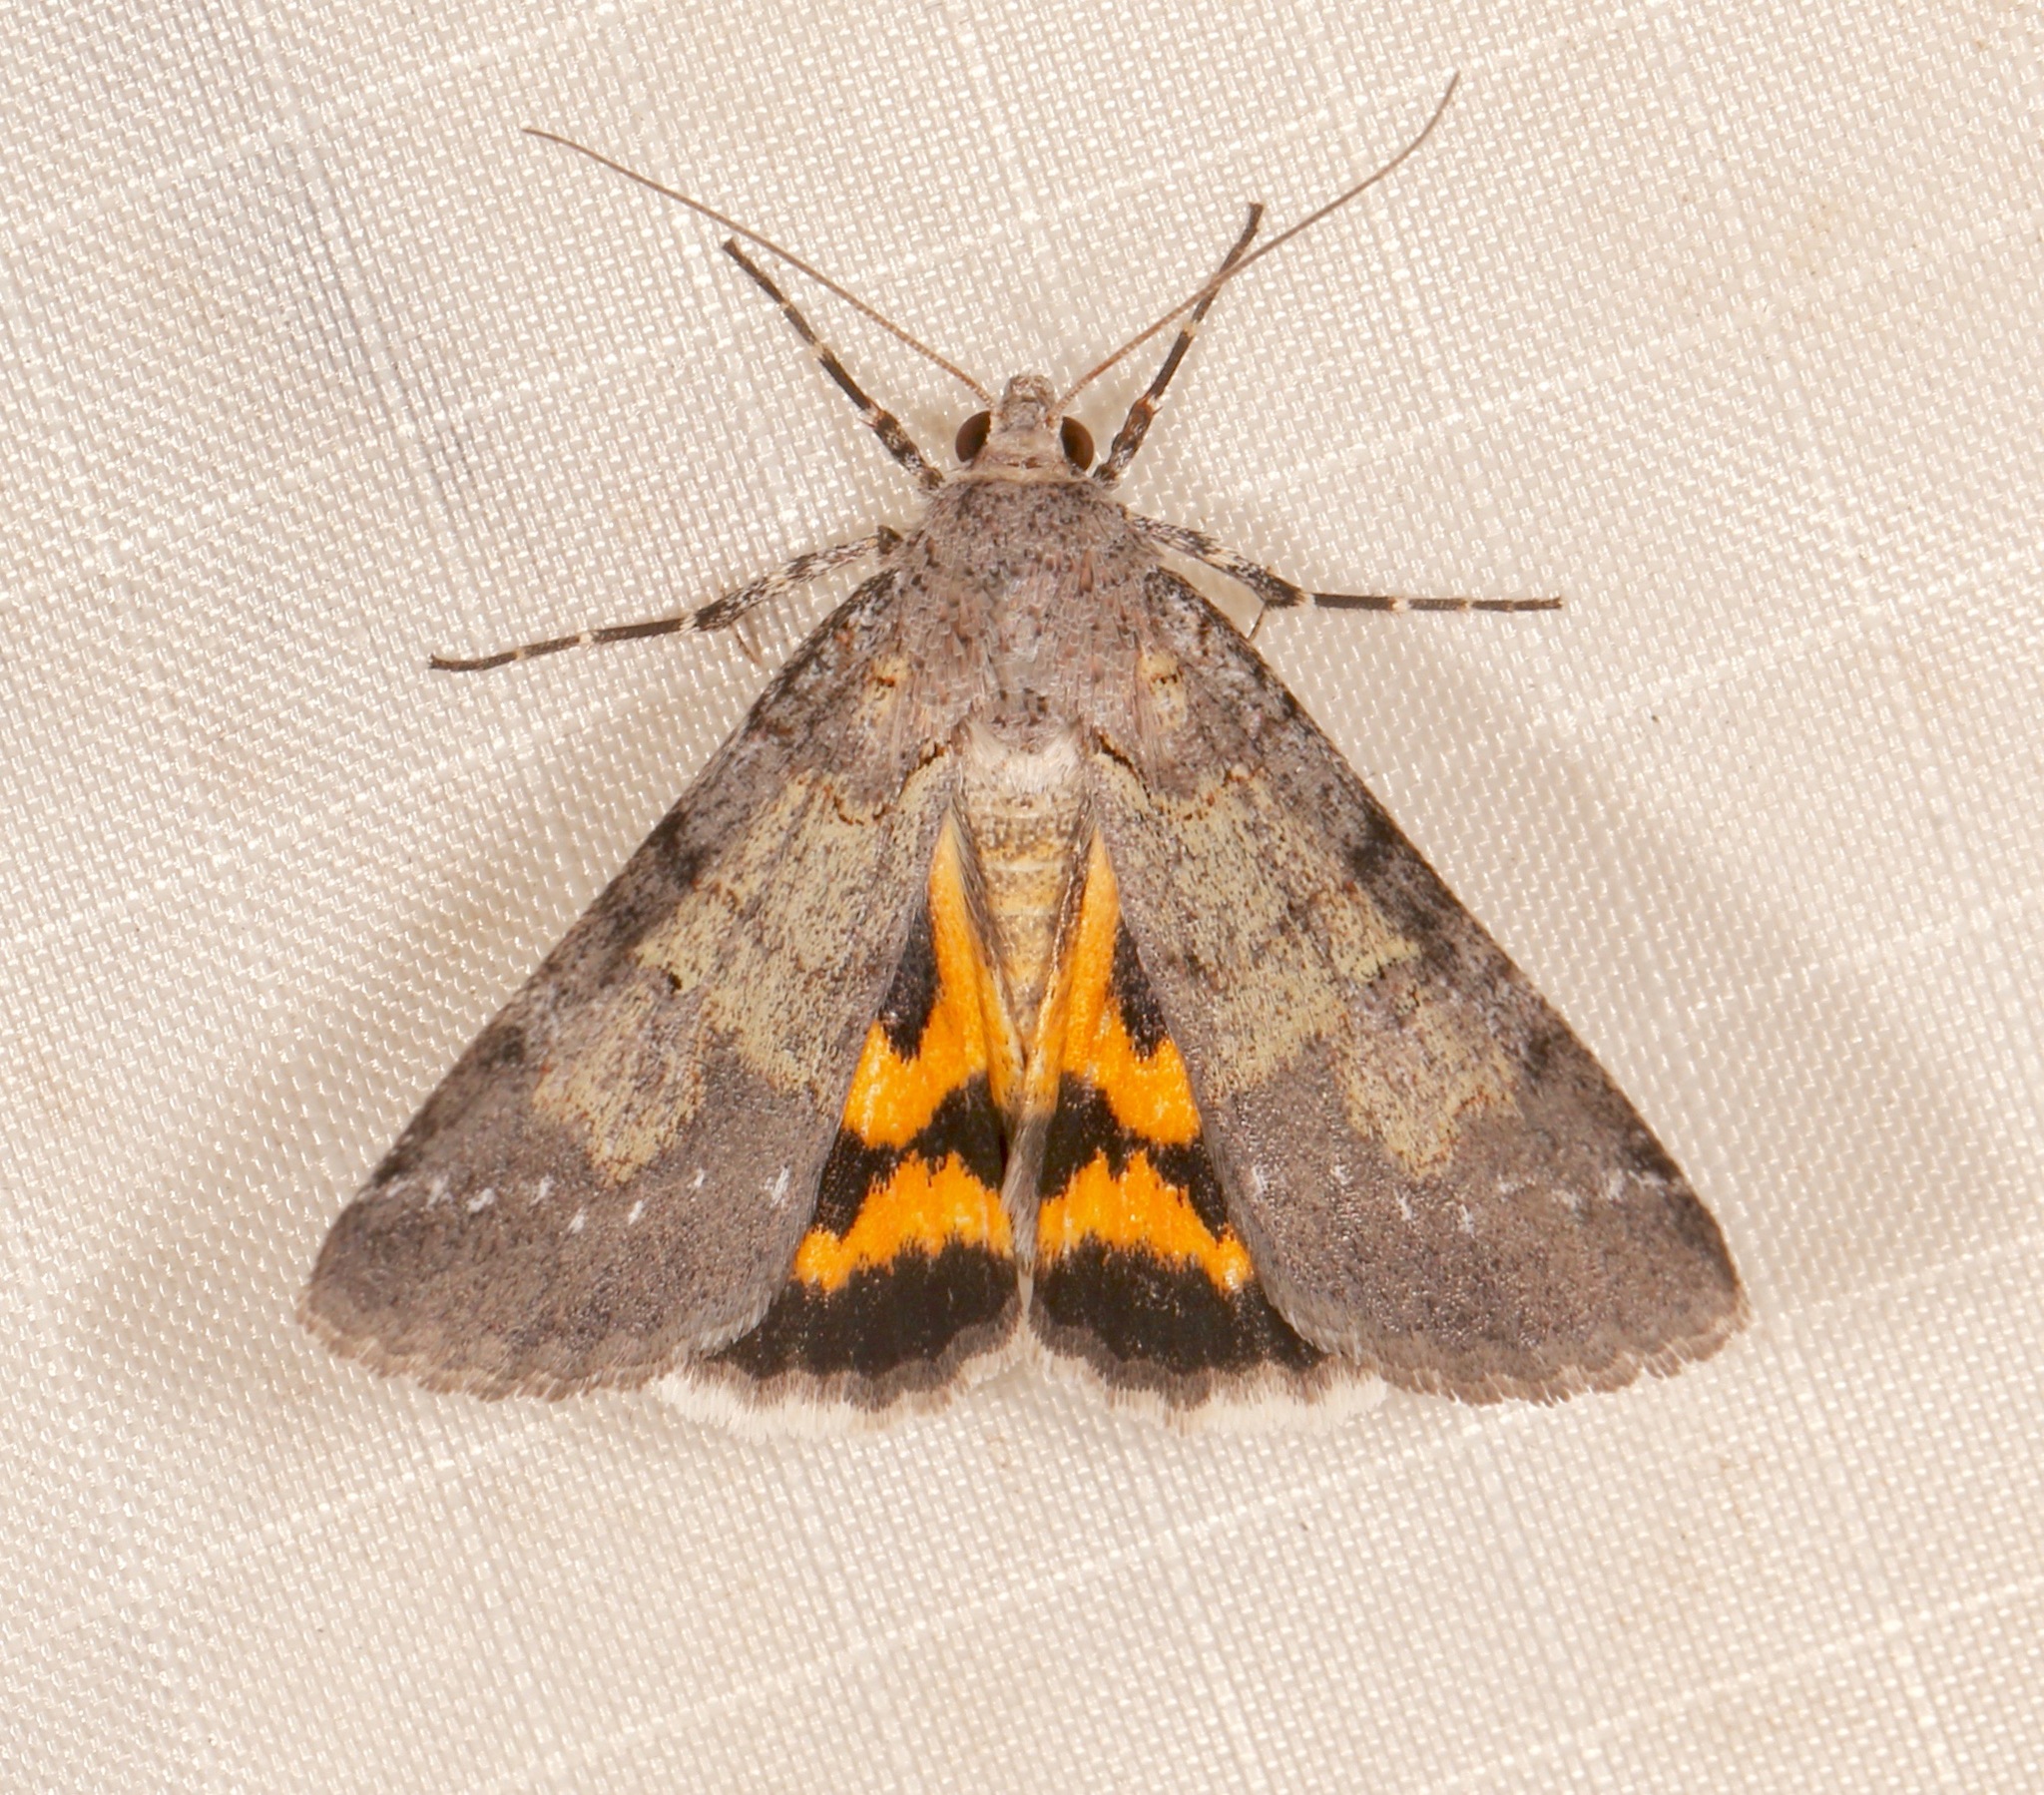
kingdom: Animalia
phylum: Arthropoda
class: Insecta
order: Lepidoptera
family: Erebidae
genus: Drasteria
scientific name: Drasteria graphica
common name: Coastal graphic
